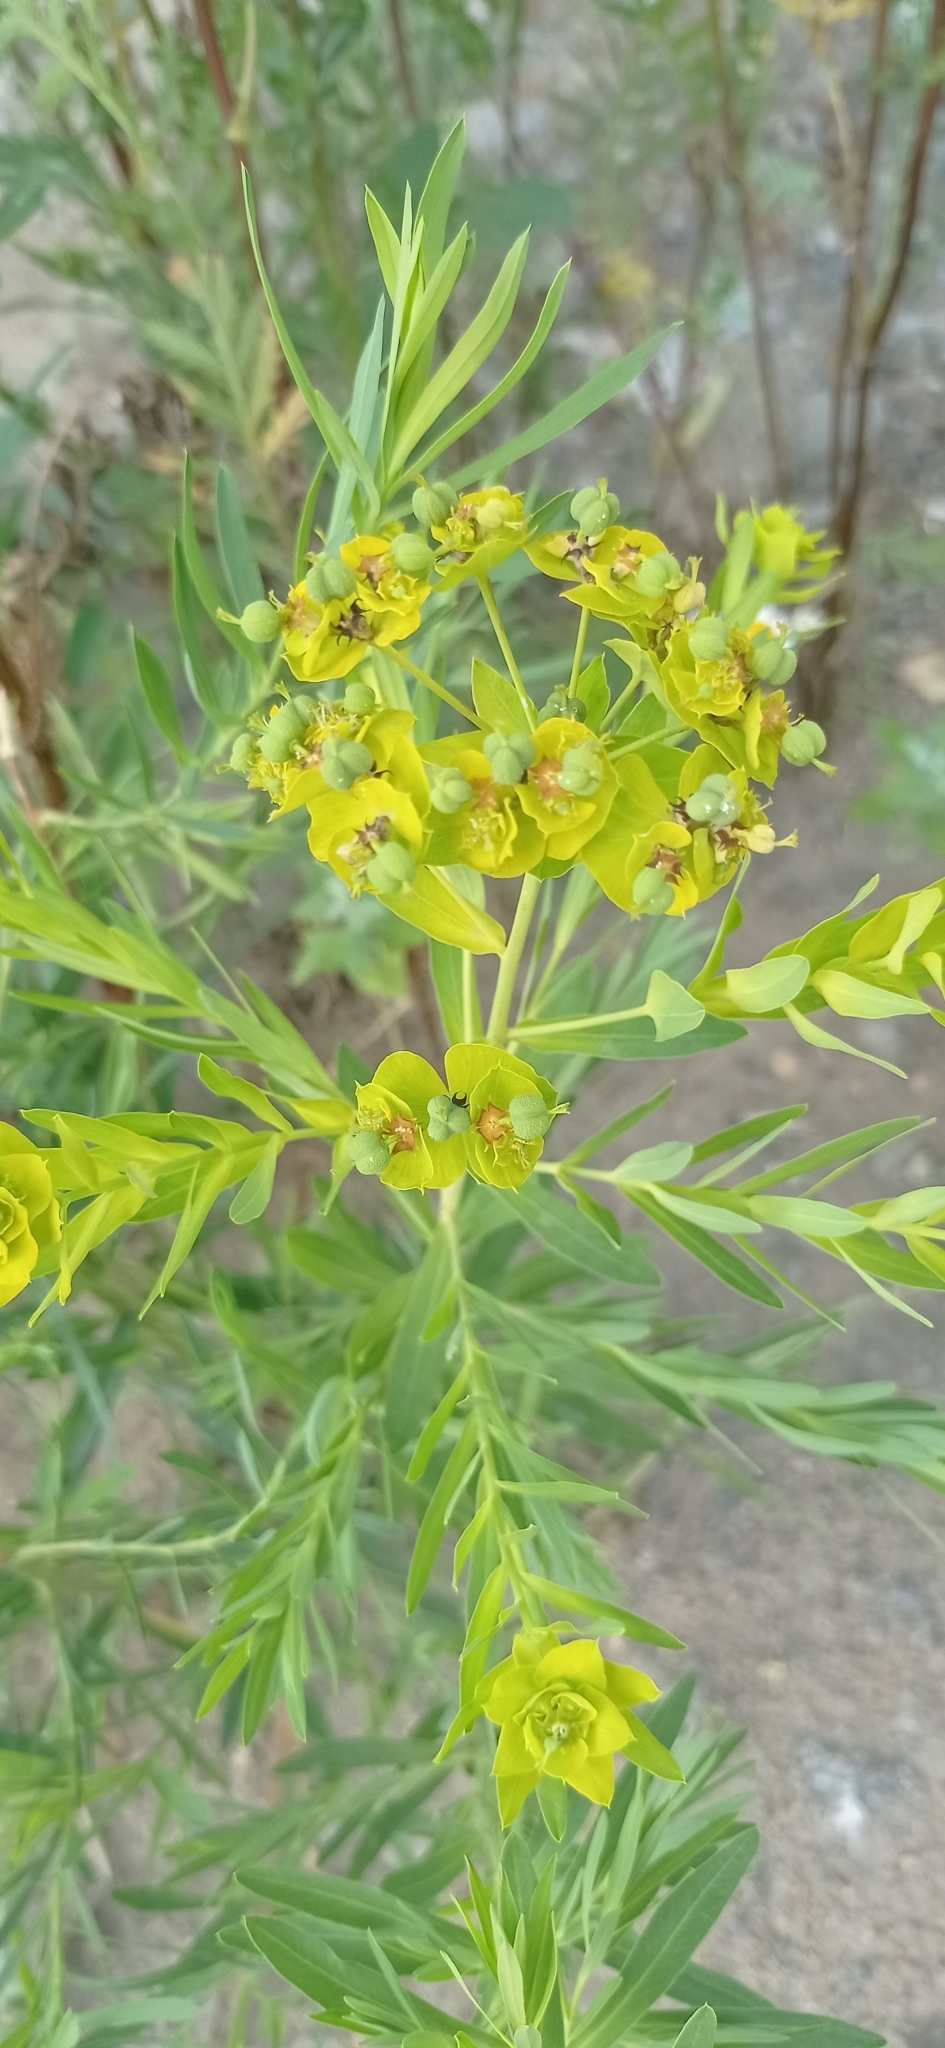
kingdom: Plantae
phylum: Tracheophyta
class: Magnoliopsida
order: Malpighiales
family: Euphorbiaceae
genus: Euphorbia
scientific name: Euphorbia virgata
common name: Leafy spurge
